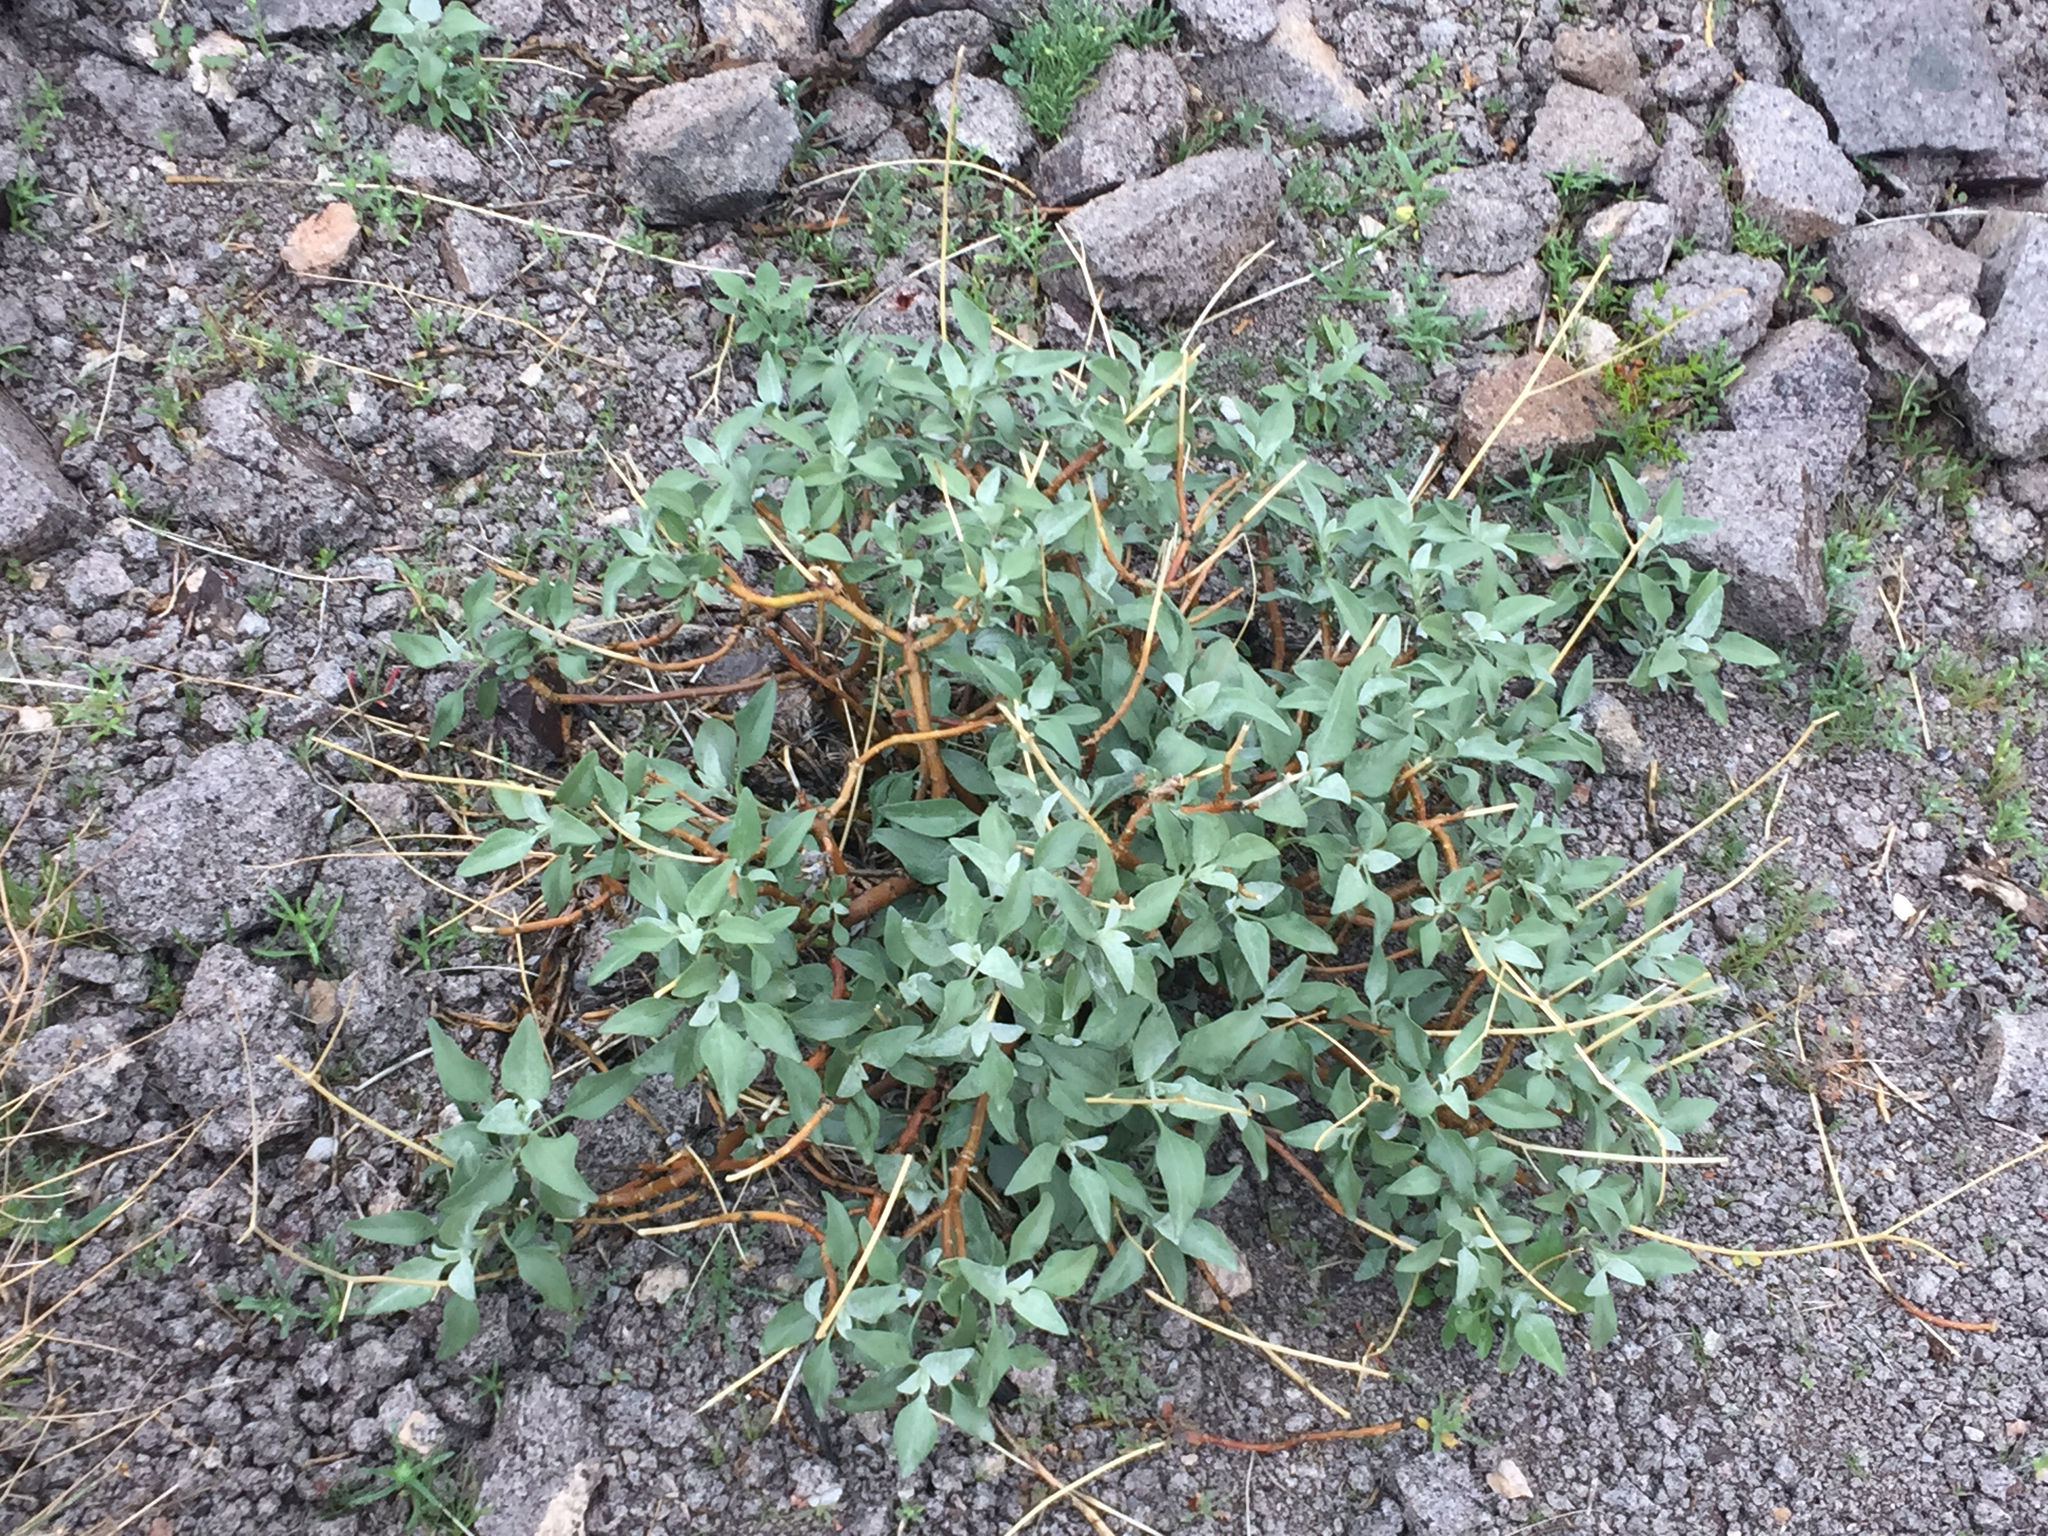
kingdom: Plantae
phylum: Tracheophyta
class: Magnoliopsida
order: Asterales
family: Asteraceae
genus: Encelia
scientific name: Encelia farinosa
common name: Brittlebush
